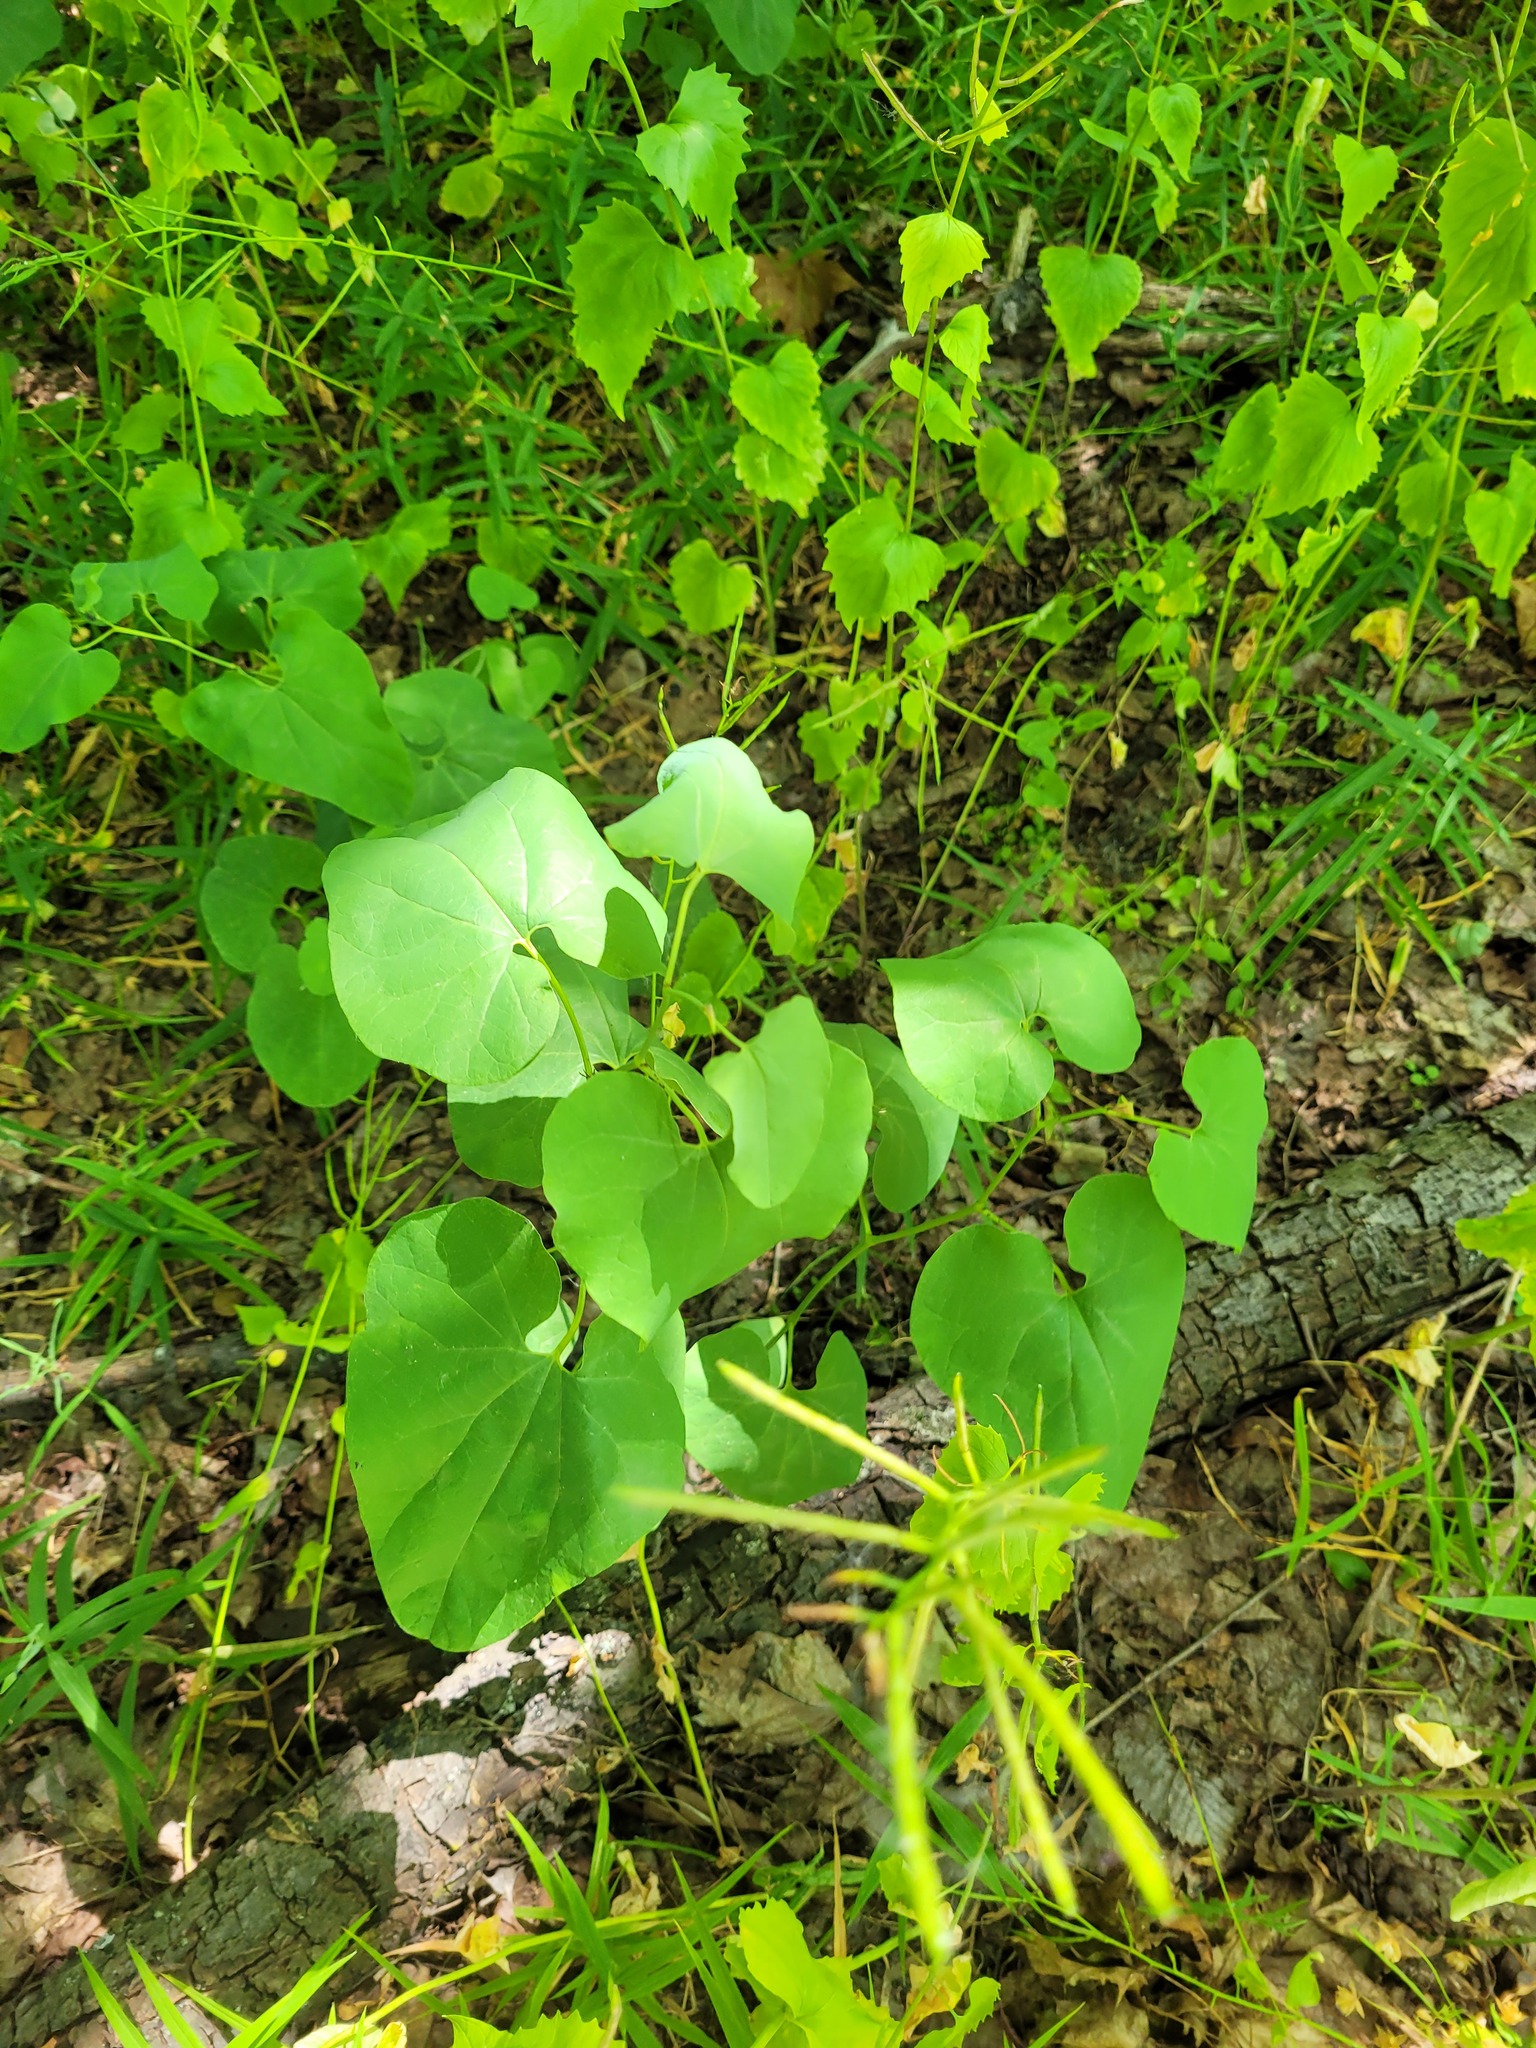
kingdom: Plantae
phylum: Tracheophyta
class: Magnoliopsida
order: Piperales
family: Aristolochiaceae
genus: Aristolochia
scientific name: Aristolochia clematitis
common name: Birthwort
